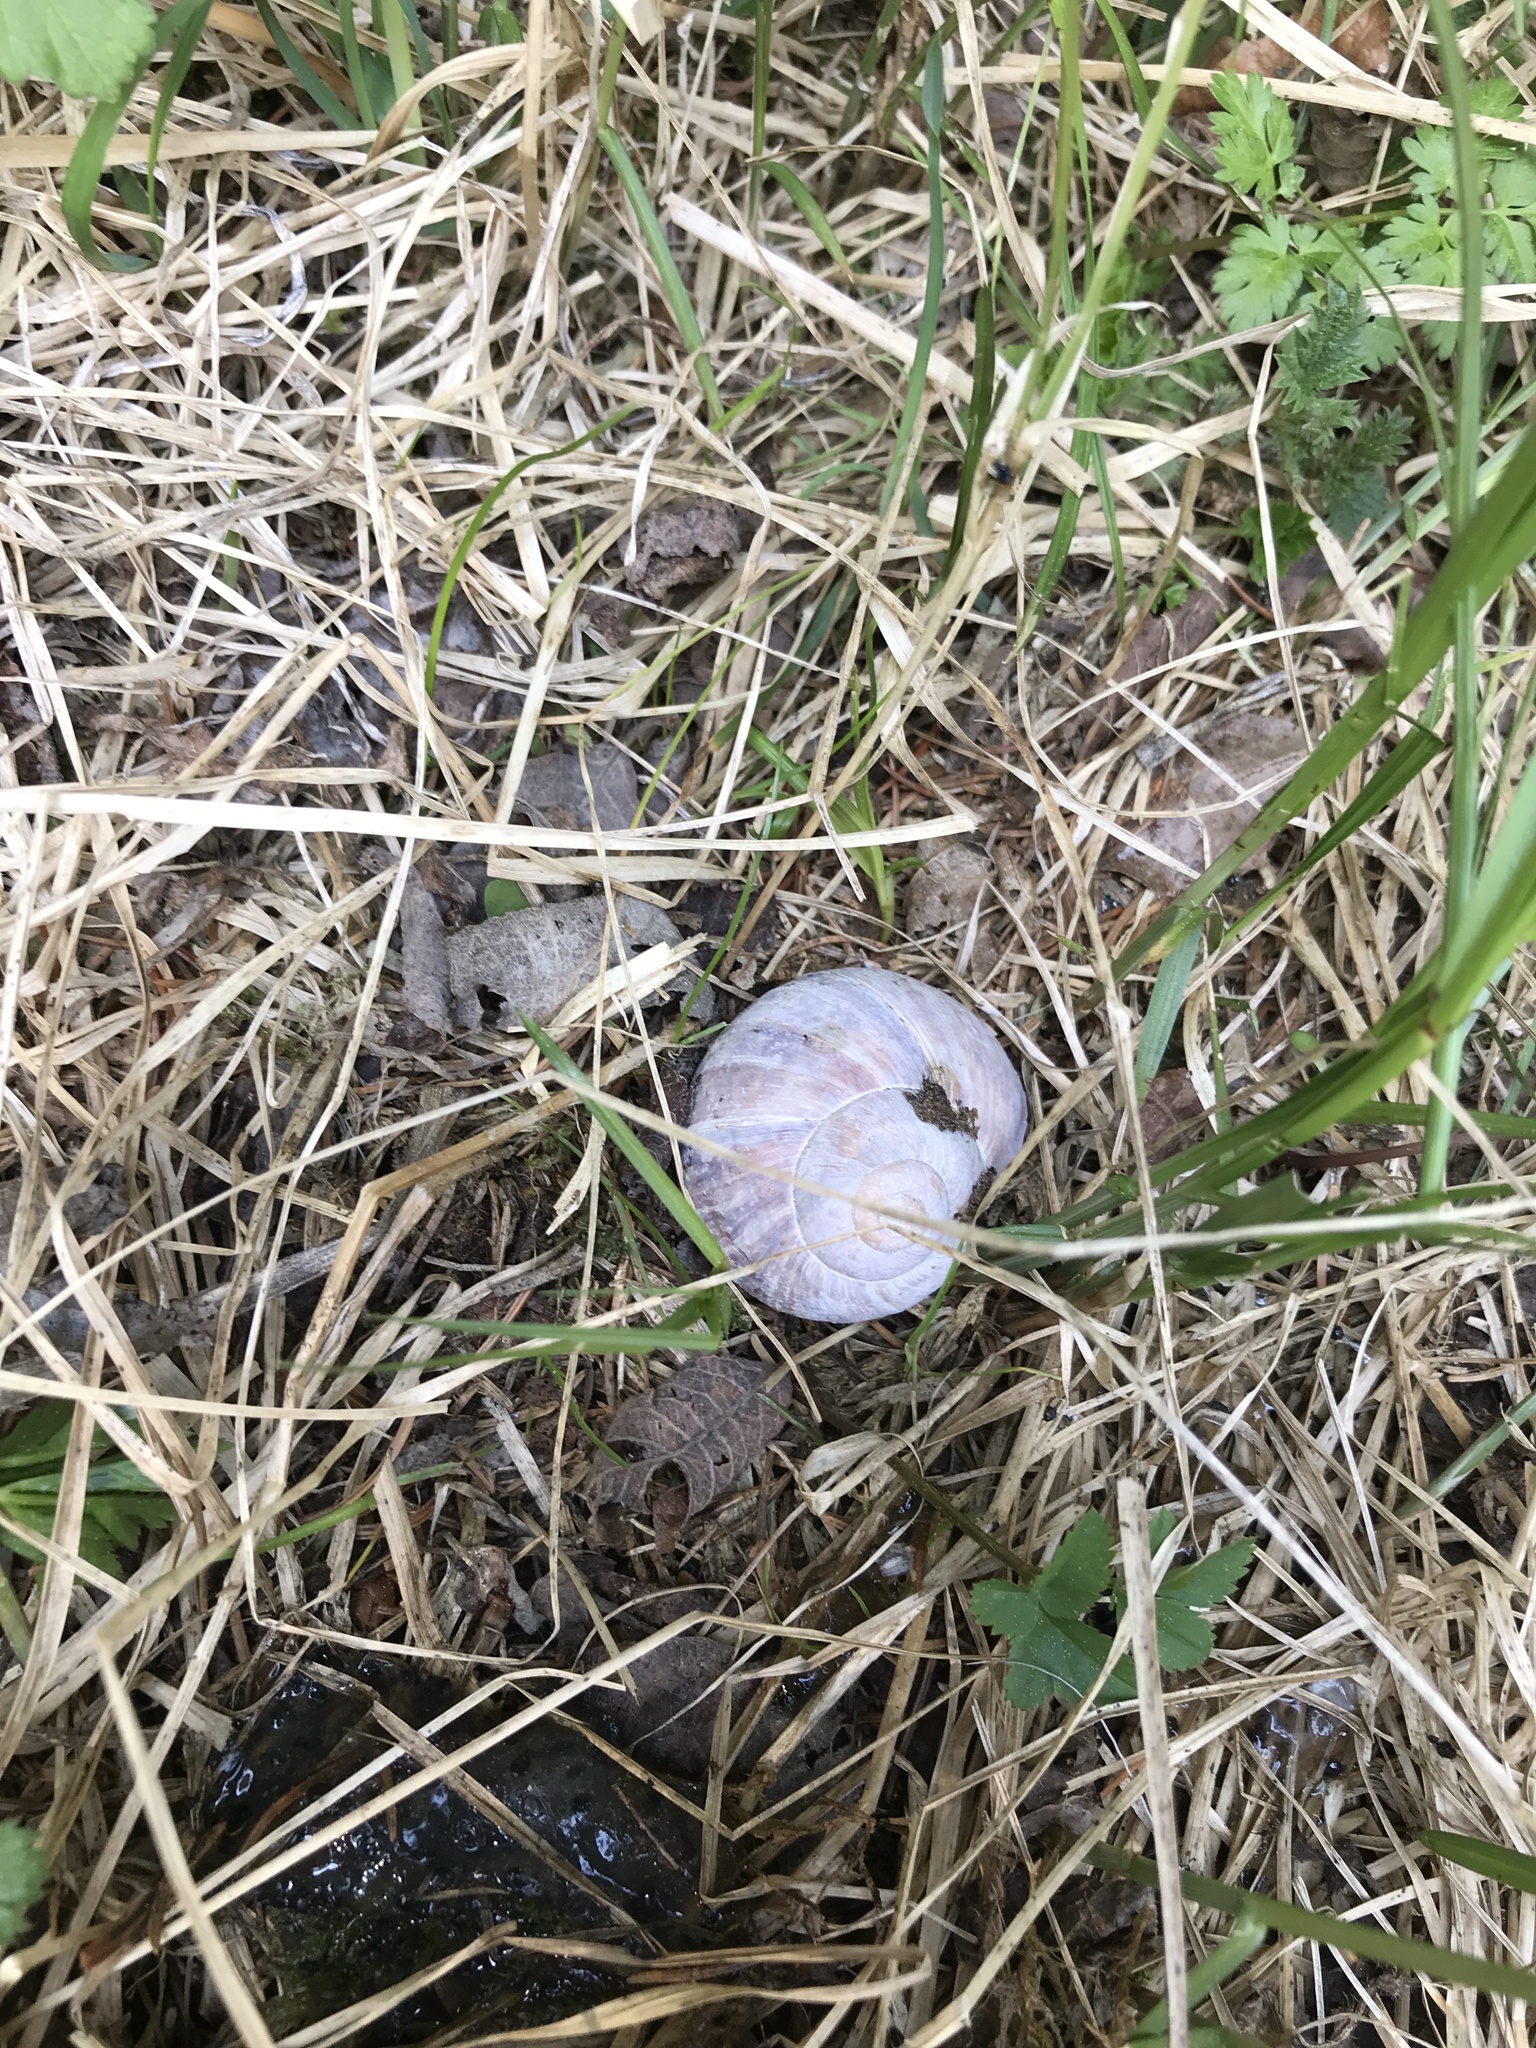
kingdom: Animalia
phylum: Mollusca
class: Gastropoda
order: Stylommatophora
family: Helicidae
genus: Helix
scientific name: Helix pomatia
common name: Roman snail
